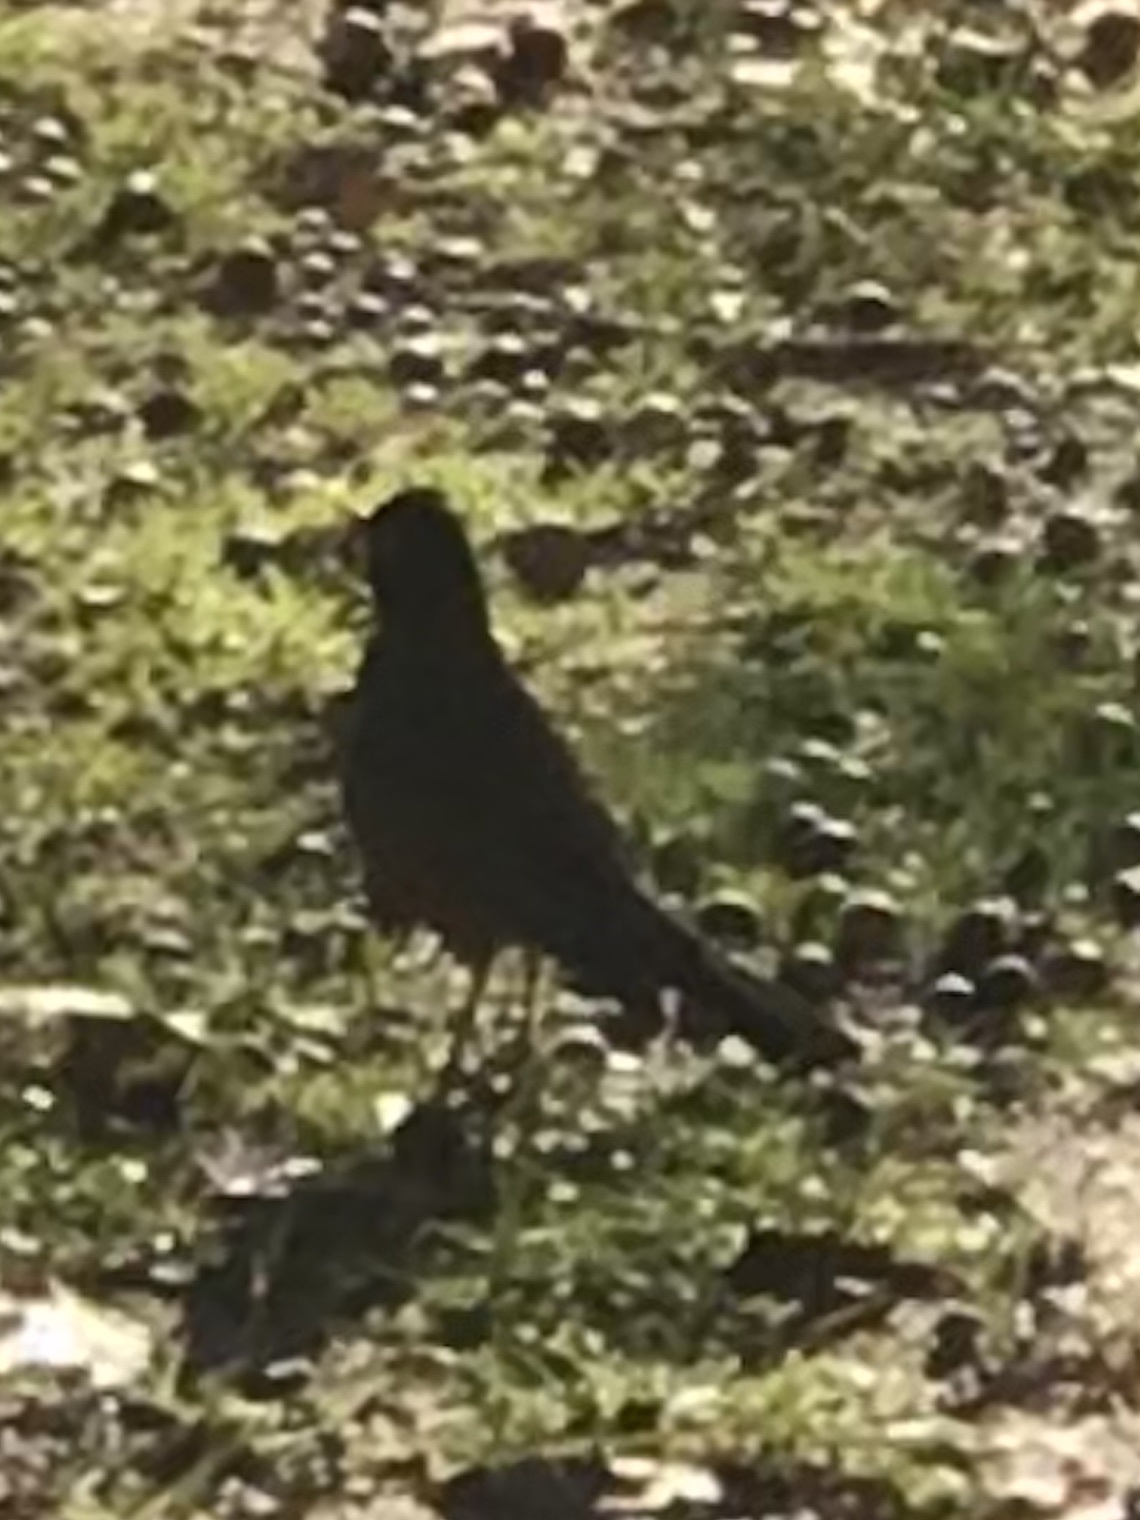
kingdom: Animalia
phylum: Chordata
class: Aves
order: Passeriformes
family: Turdidae
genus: Turdus
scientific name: Turdus migratorius
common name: American robin
